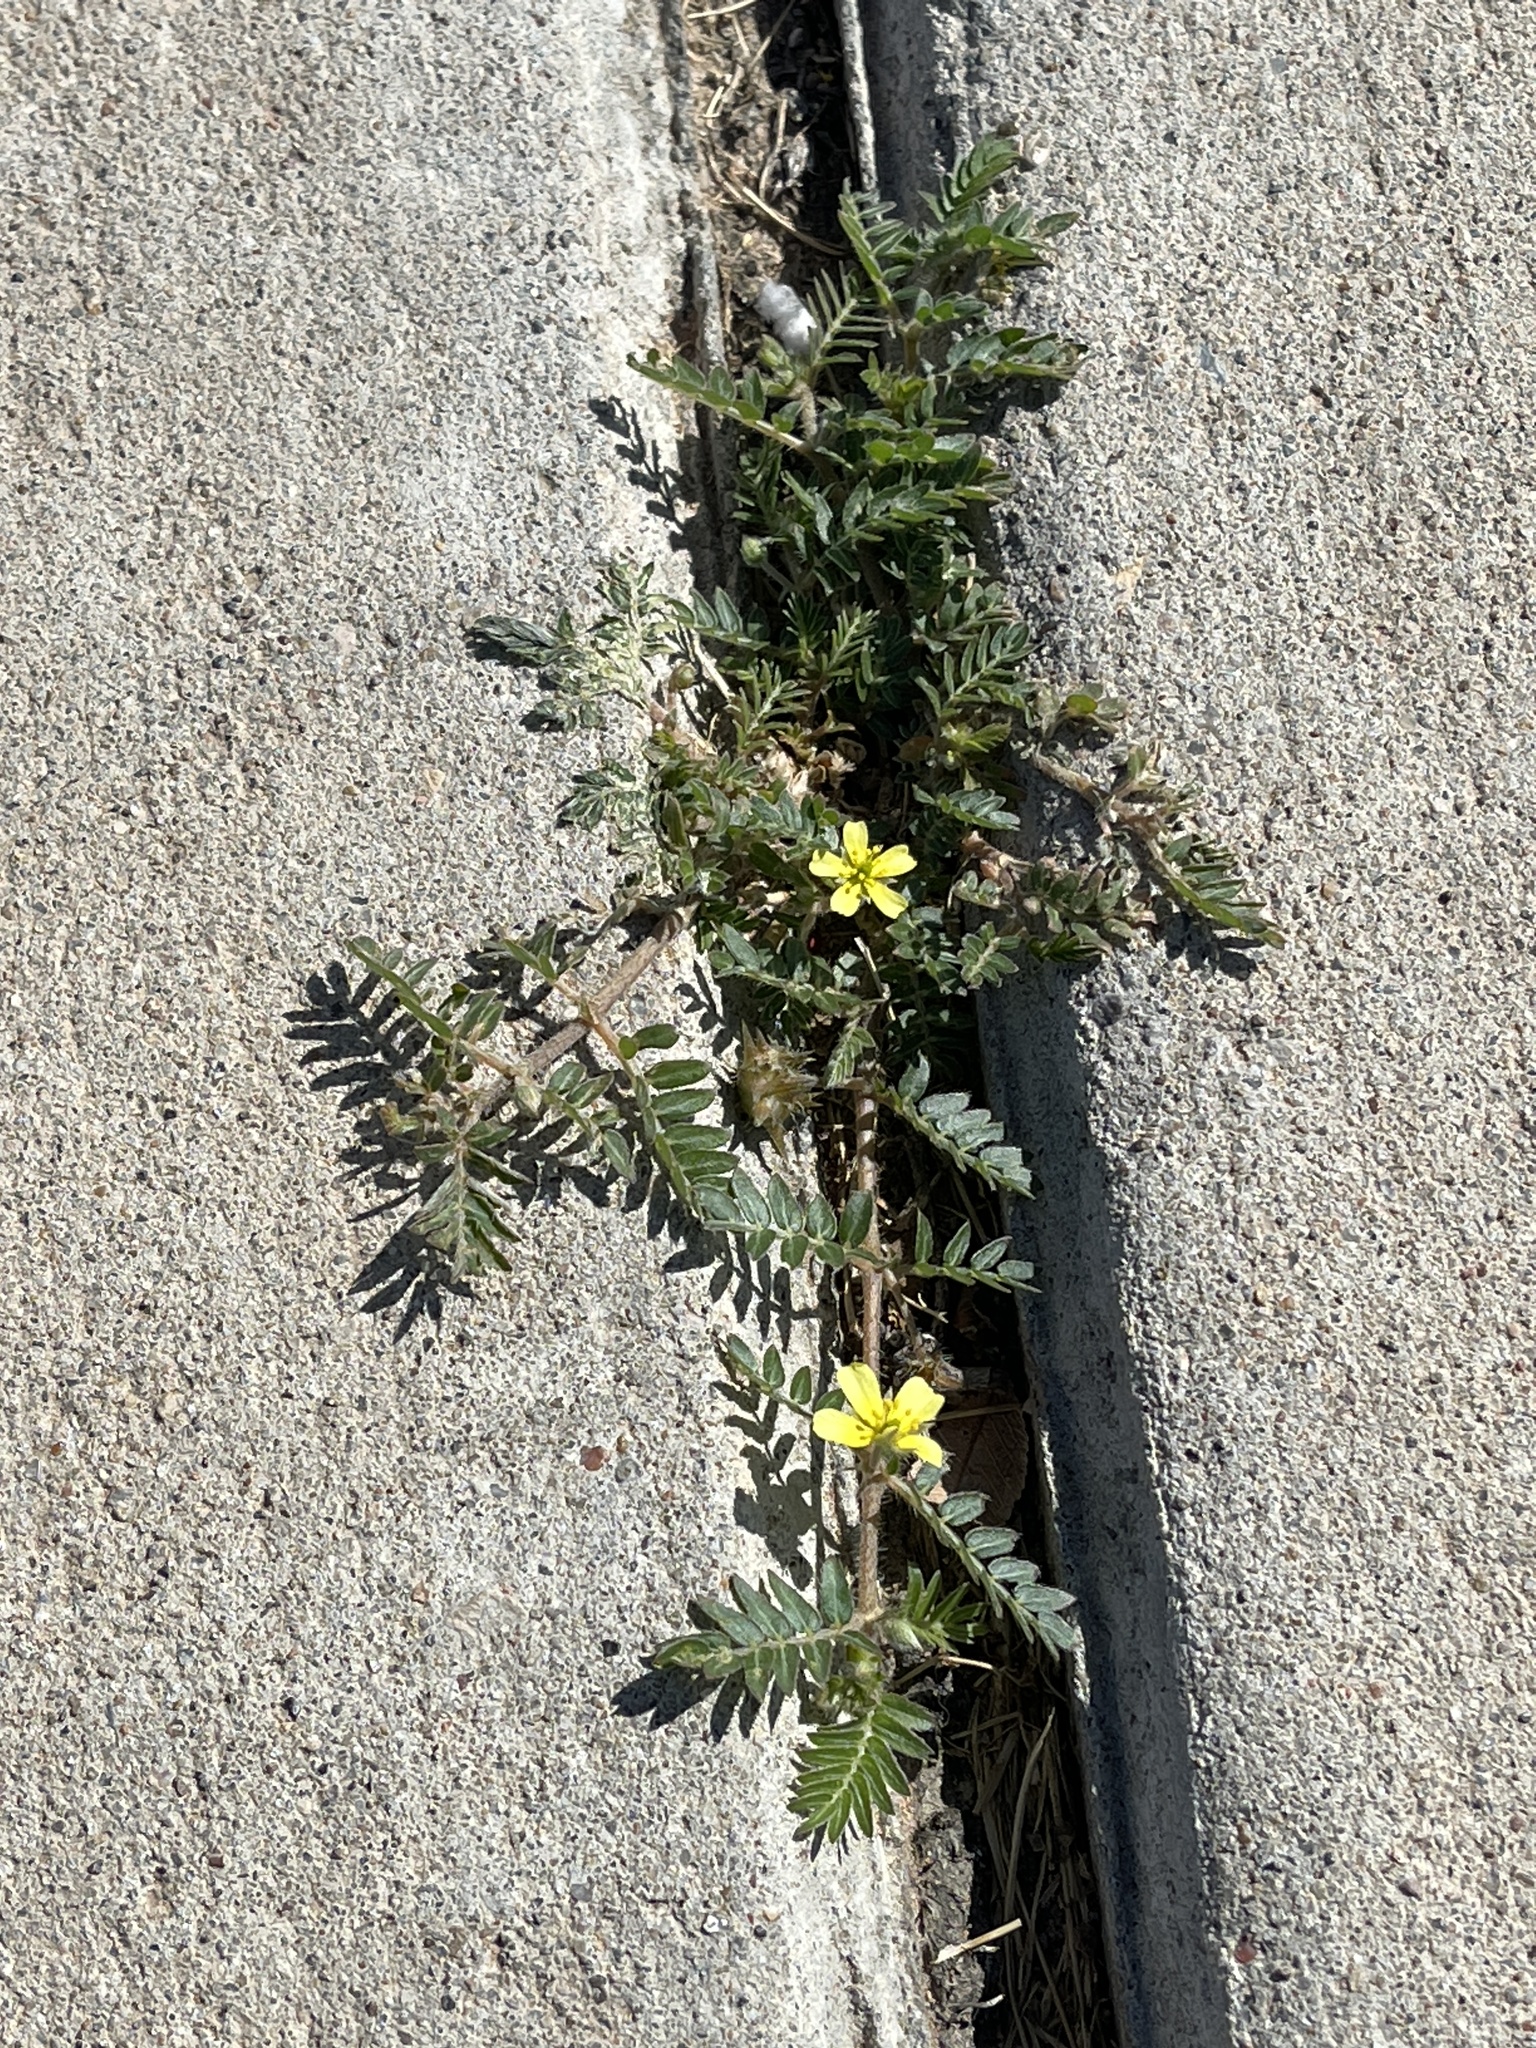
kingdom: Plantae
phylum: Tracheophyta
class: Magnoliopsida
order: Zygophyllales
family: Zygophyllaceae
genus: Tribulus
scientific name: Tribulus terrestris
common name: Puncturevine
